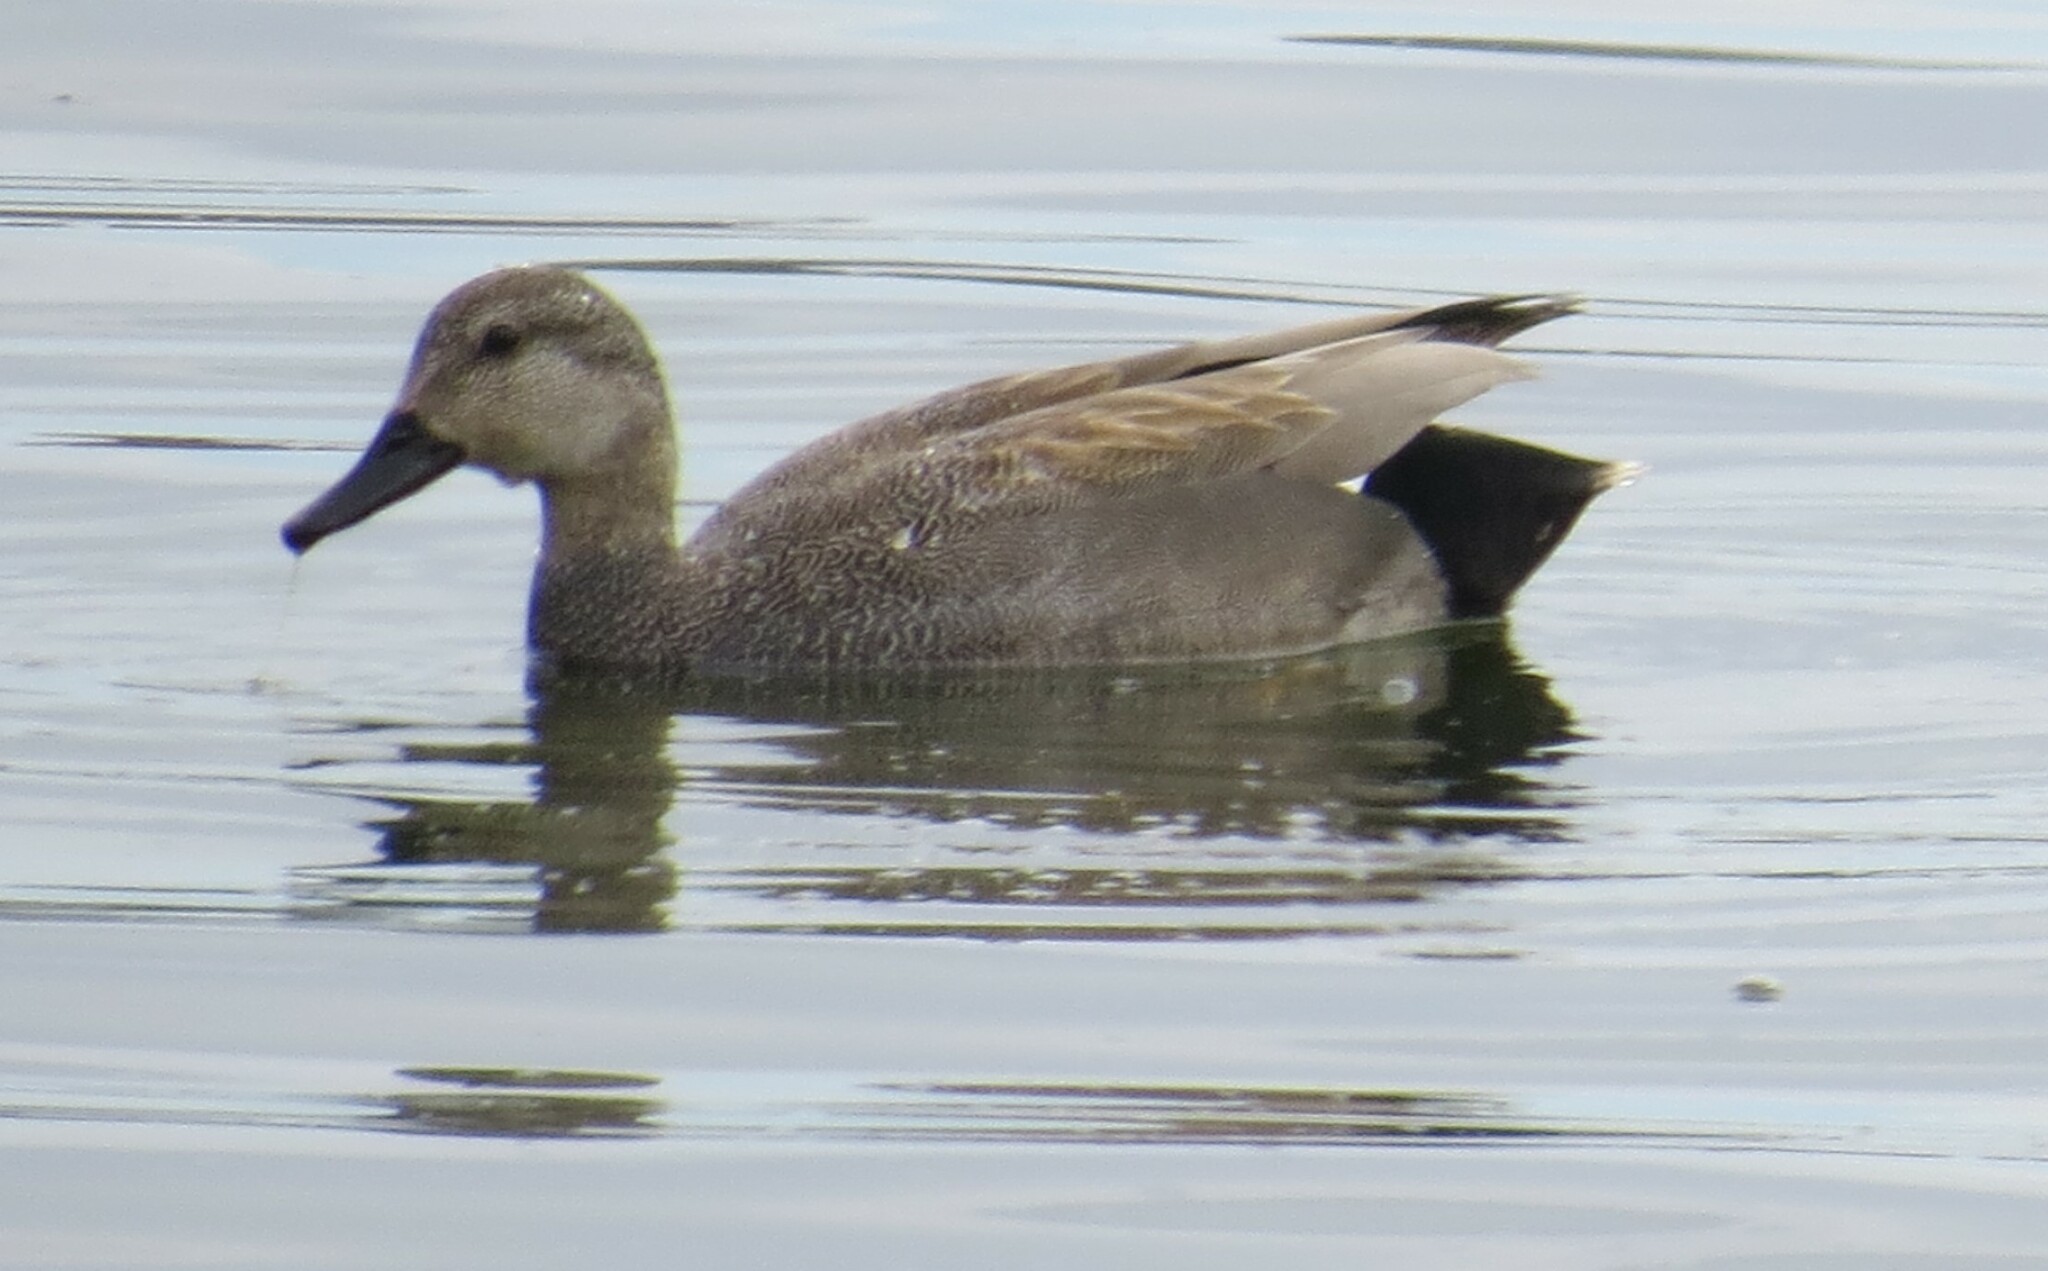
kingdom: Animalia
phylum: Chordata
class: Aves
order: Anseriformes
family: Anatidae
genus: Mareca
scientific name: Mareca strepera
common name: Gadwall
